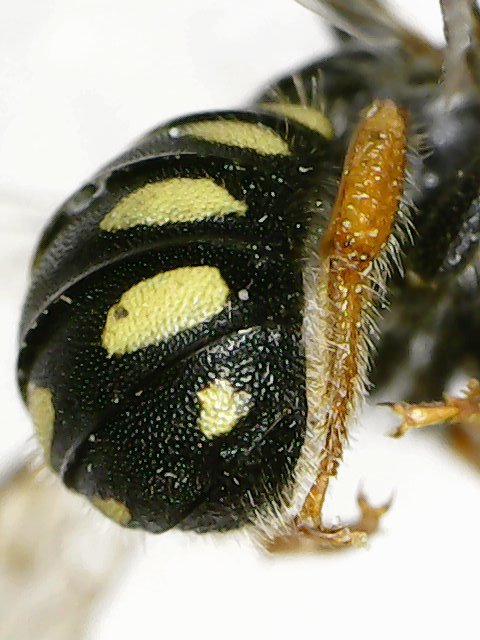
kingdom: Animalia
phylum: Arthropoda
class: Insecta
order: Hymenoptera
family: Megachilidae
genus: Pseudoanthidium
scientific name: Pseudoanthidium nanum
